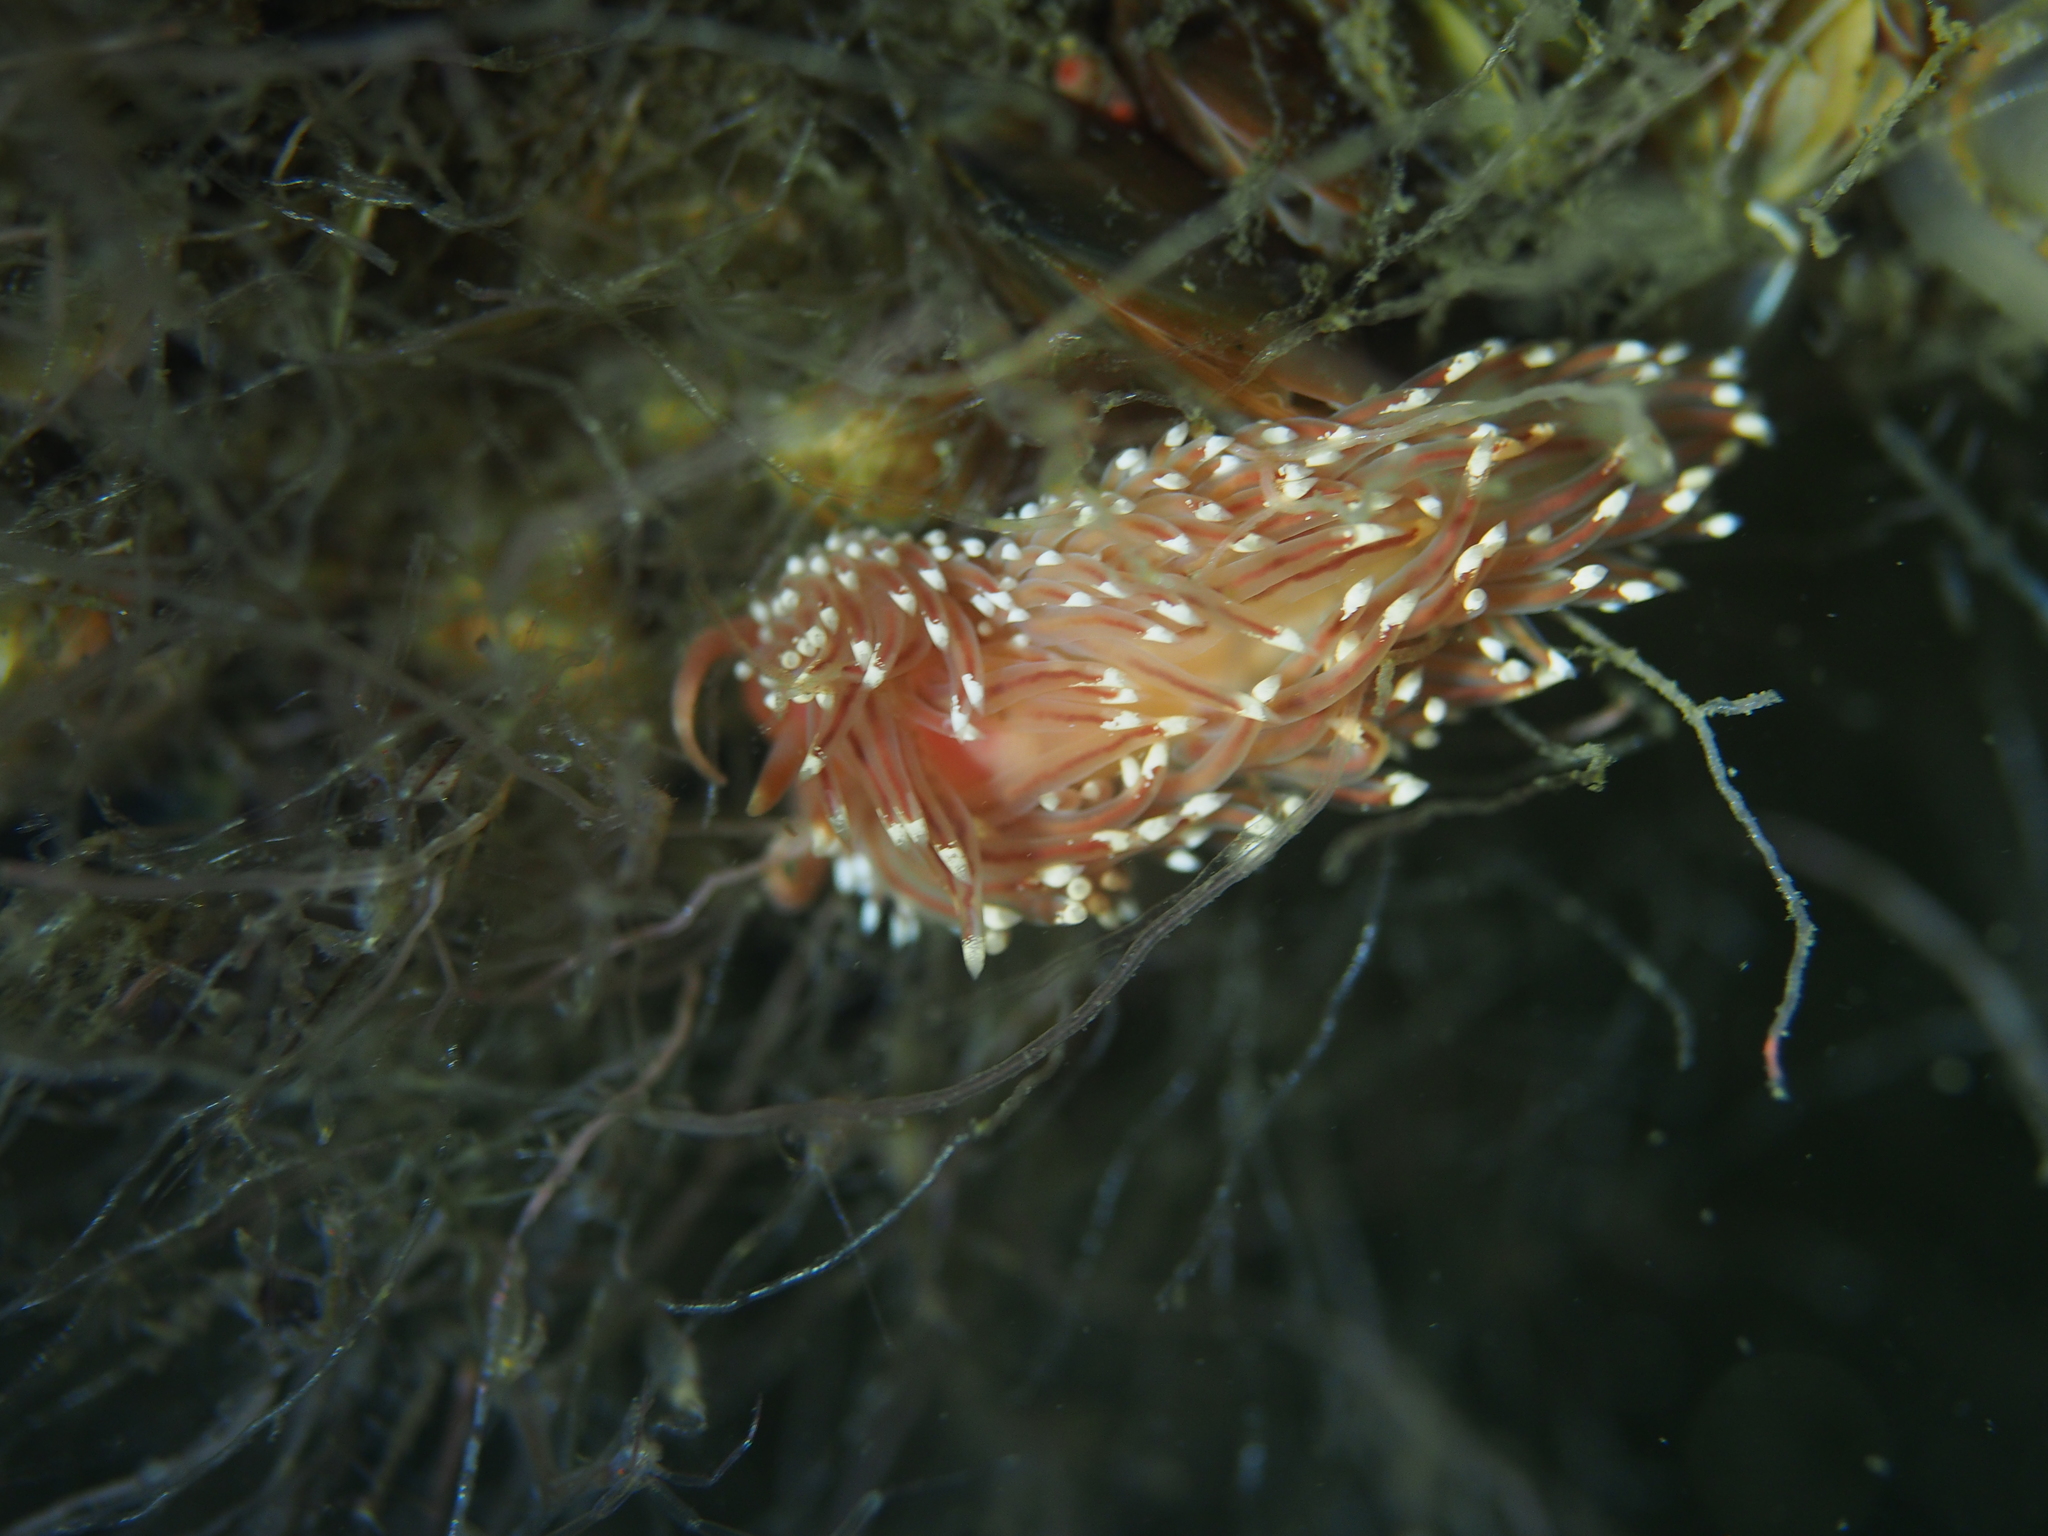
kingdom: Animalia
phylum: Mollusca
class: Gastropoda
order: Nudibranchia
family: Facelinidae
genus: Facelina
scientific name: Facelina bostoniensis
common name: Boston facelina
